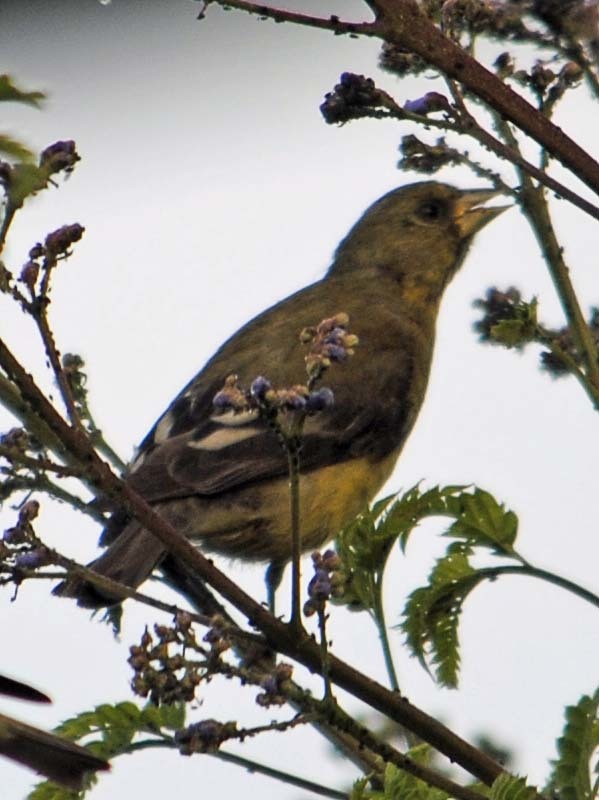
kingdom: Animalia
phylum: Chordata
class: Aves
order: Passeriformes
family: Fringillidae
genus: Spinus
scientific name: Spinus psaltria
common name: Lesser goldfinch
